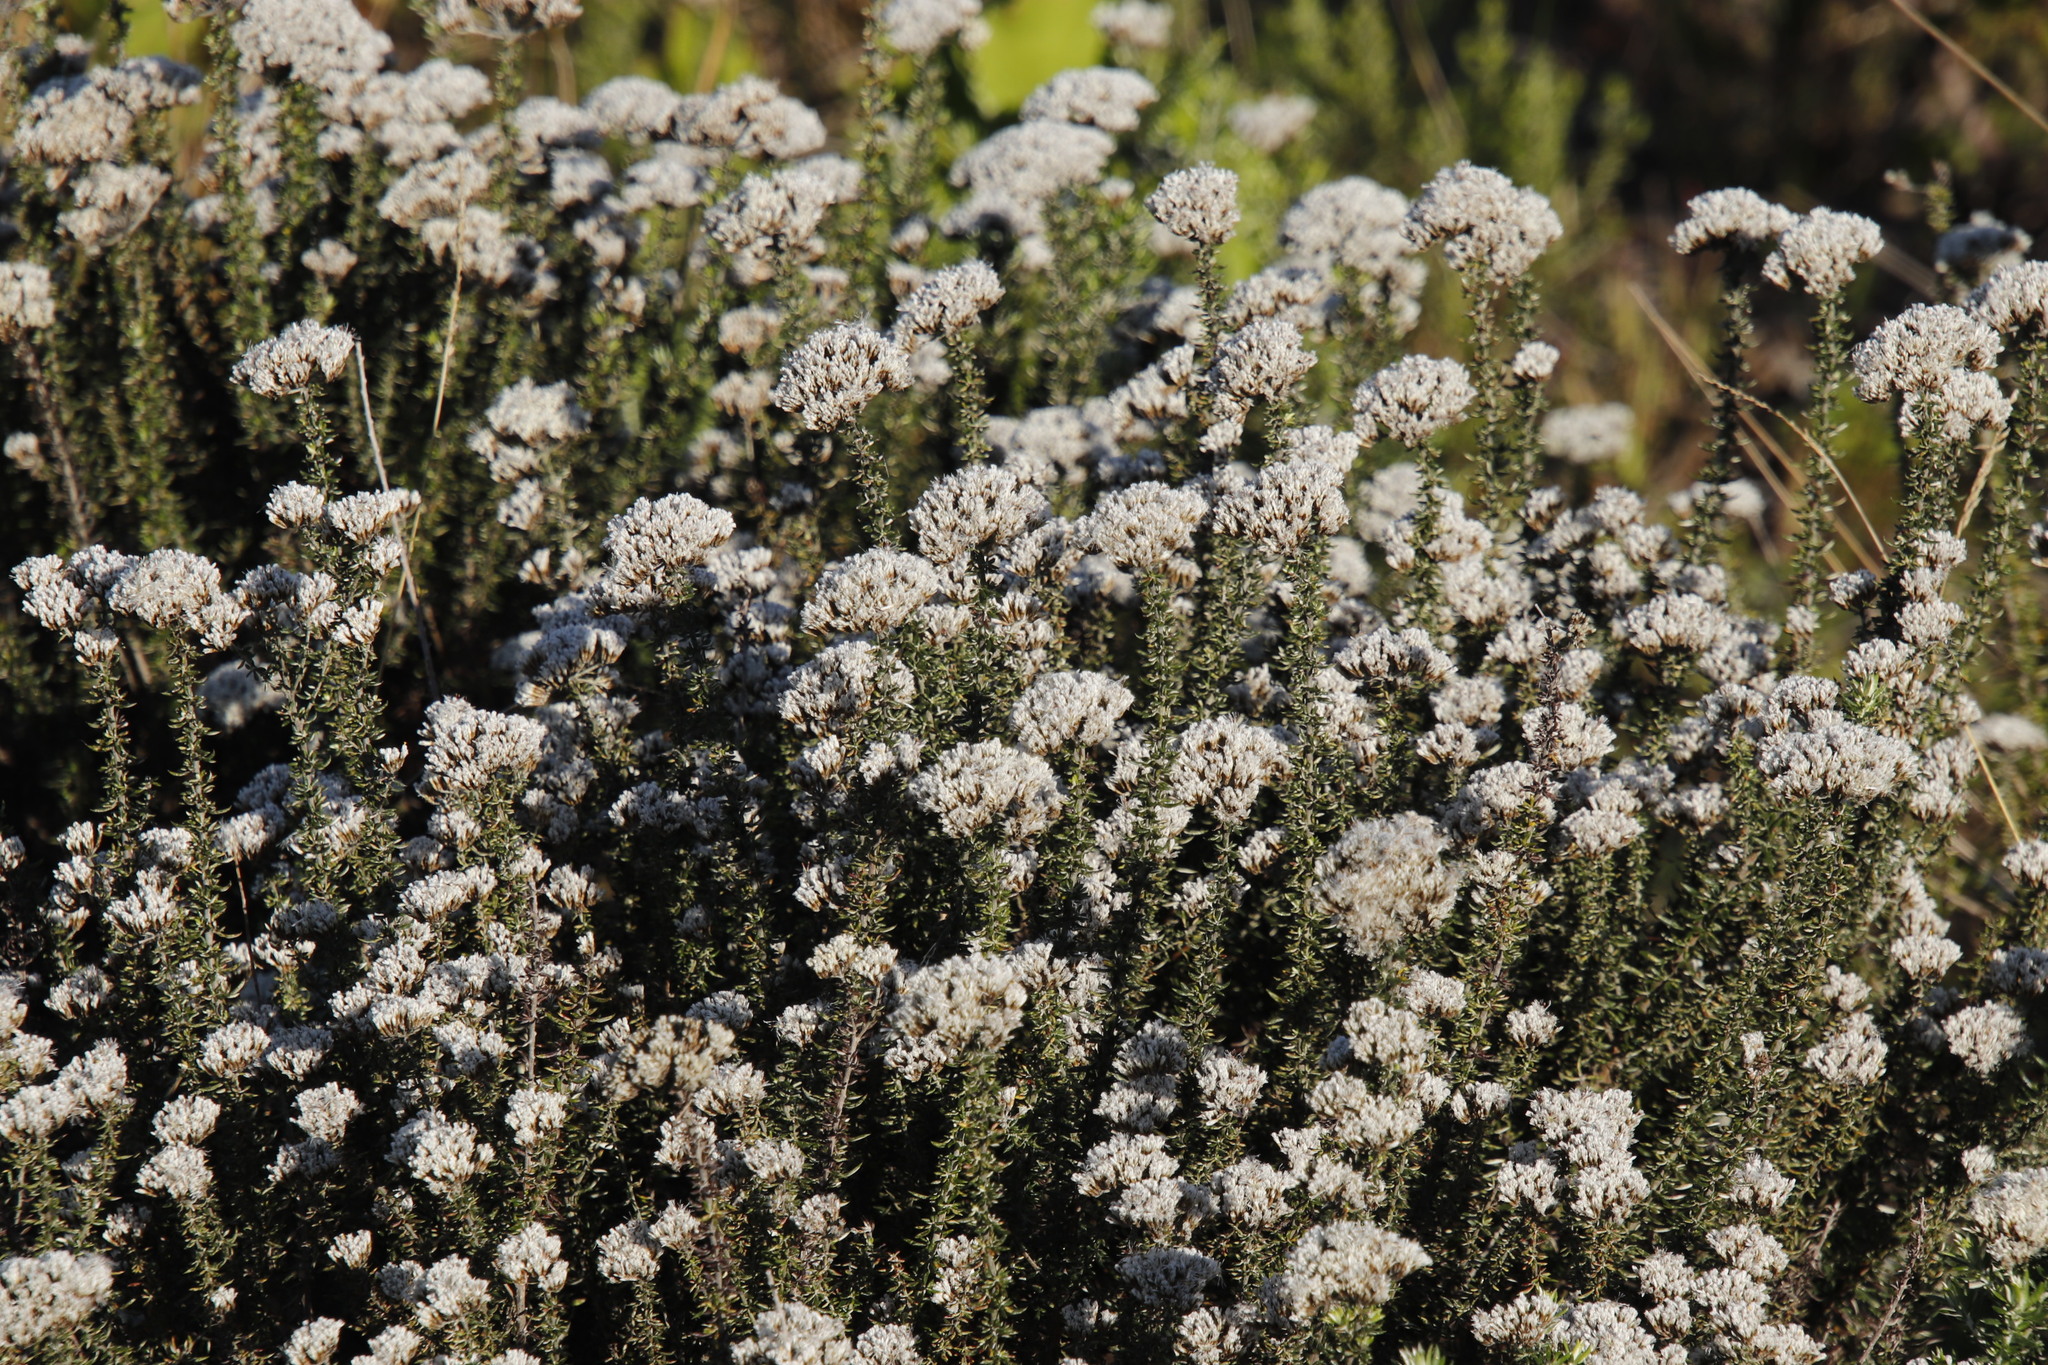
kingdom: Plantae
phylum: Tracheophyta
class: Magnoliopsida
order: Asterales
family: Asteraceae
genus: Metalasia
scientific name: Metalasia densa
